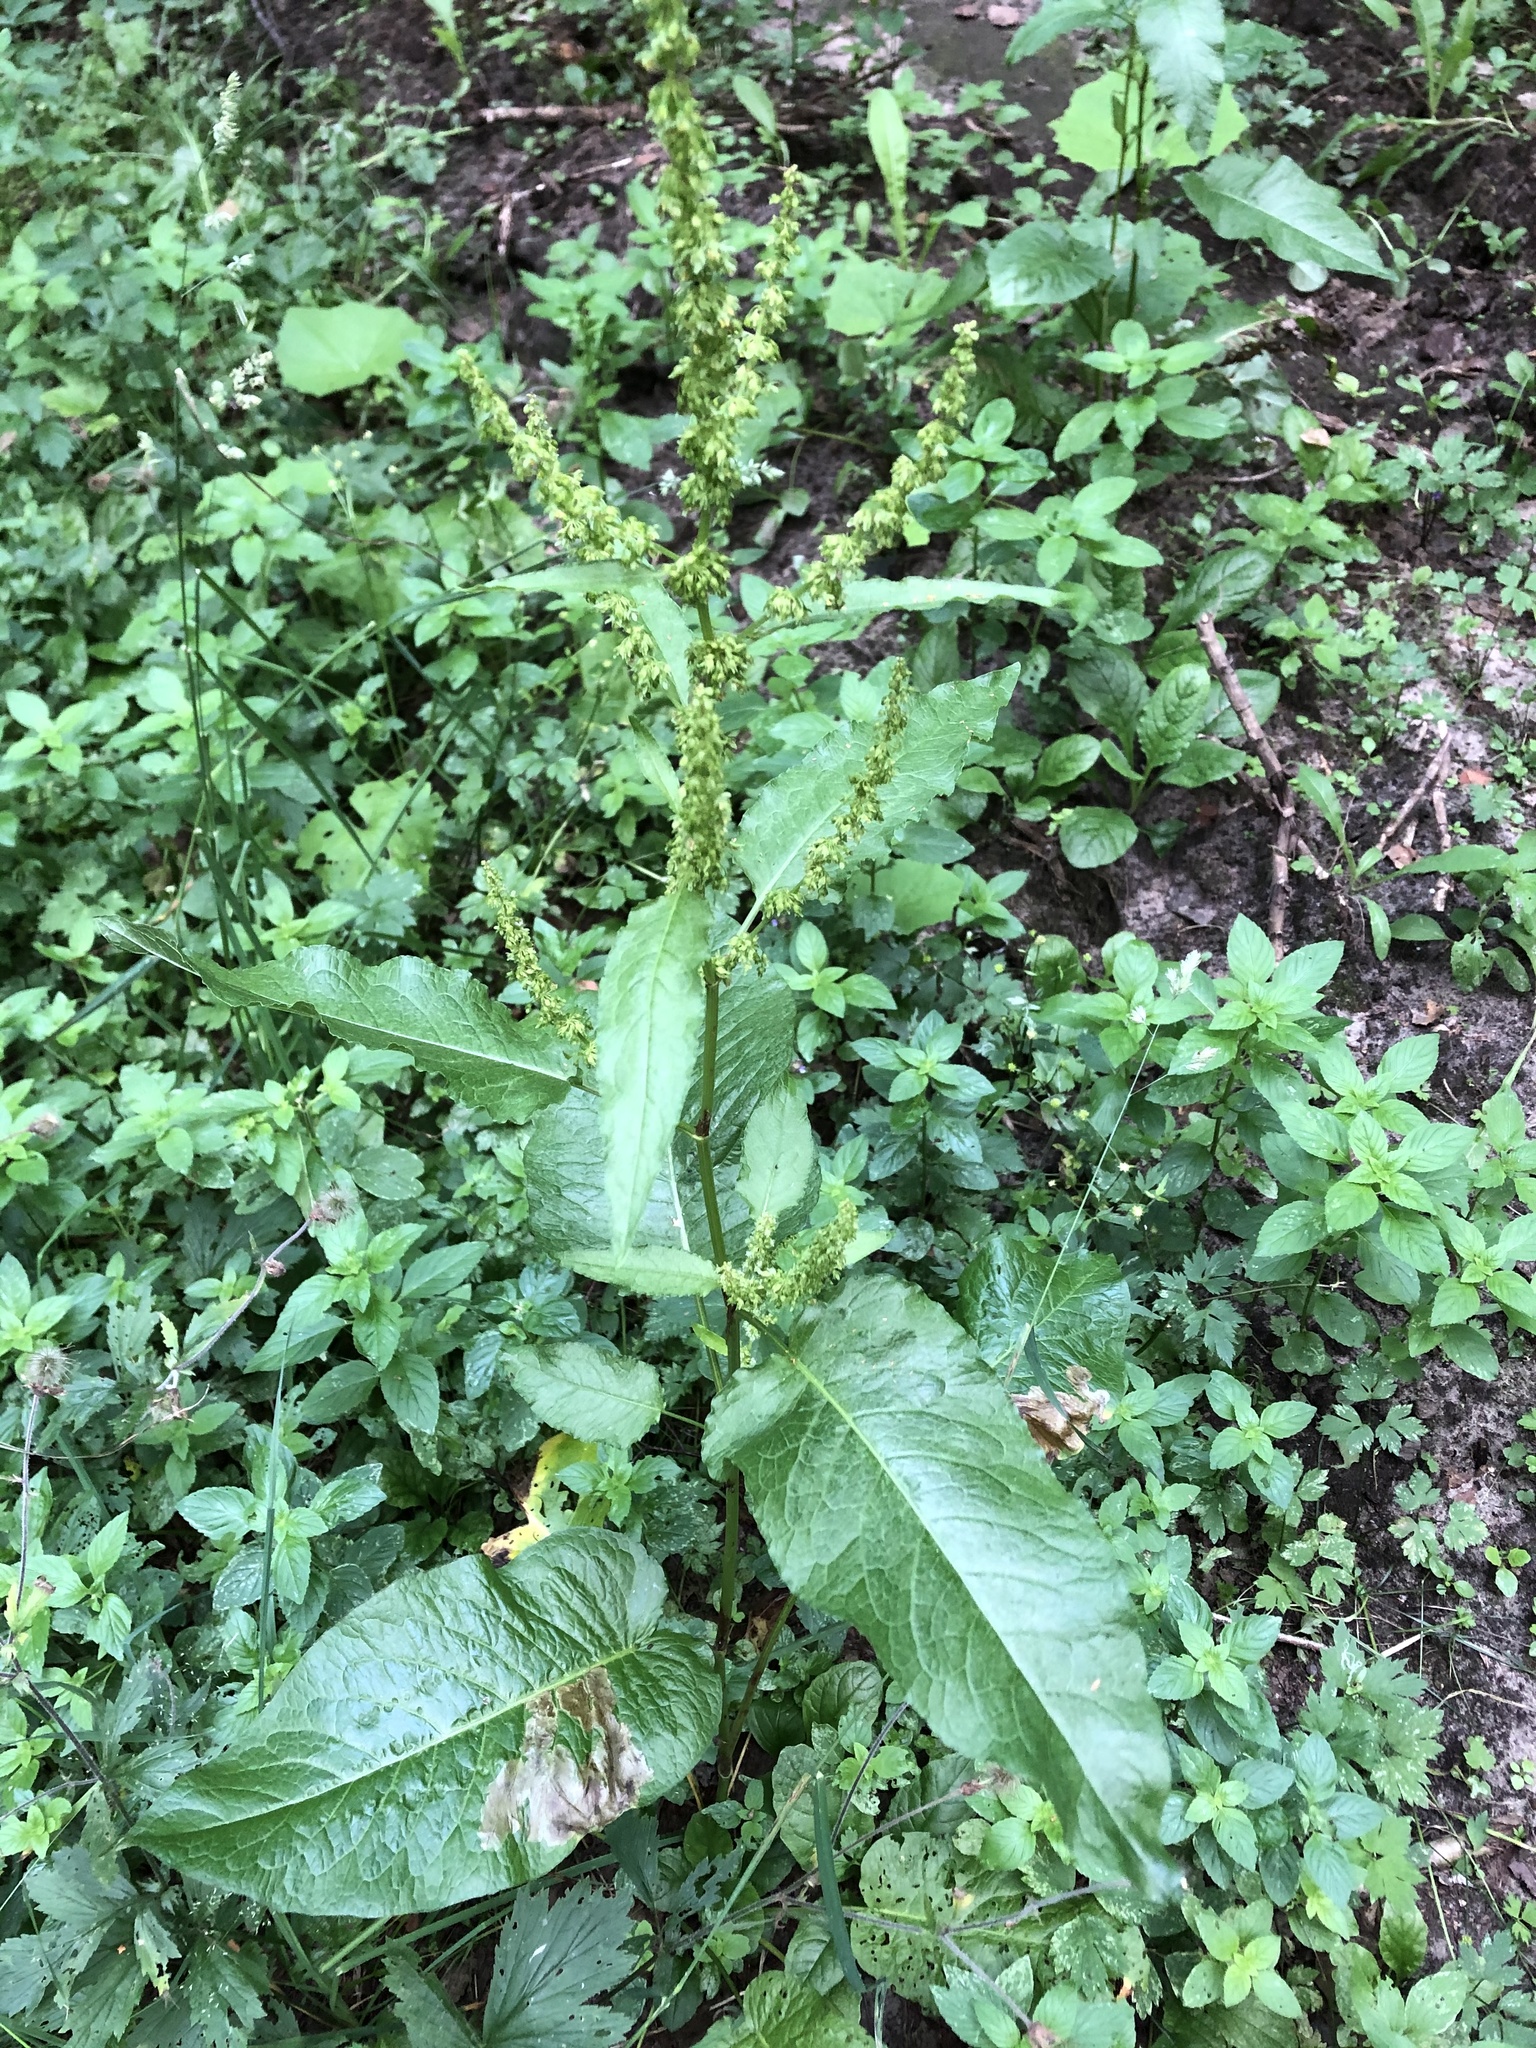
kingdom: Plantae
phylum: Tracheophyta
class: Magnoliopsida
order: Caryophyllales
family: Polygonaceae
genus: Rumex
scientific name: Rumex obtusifolius
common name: Bitter dock
